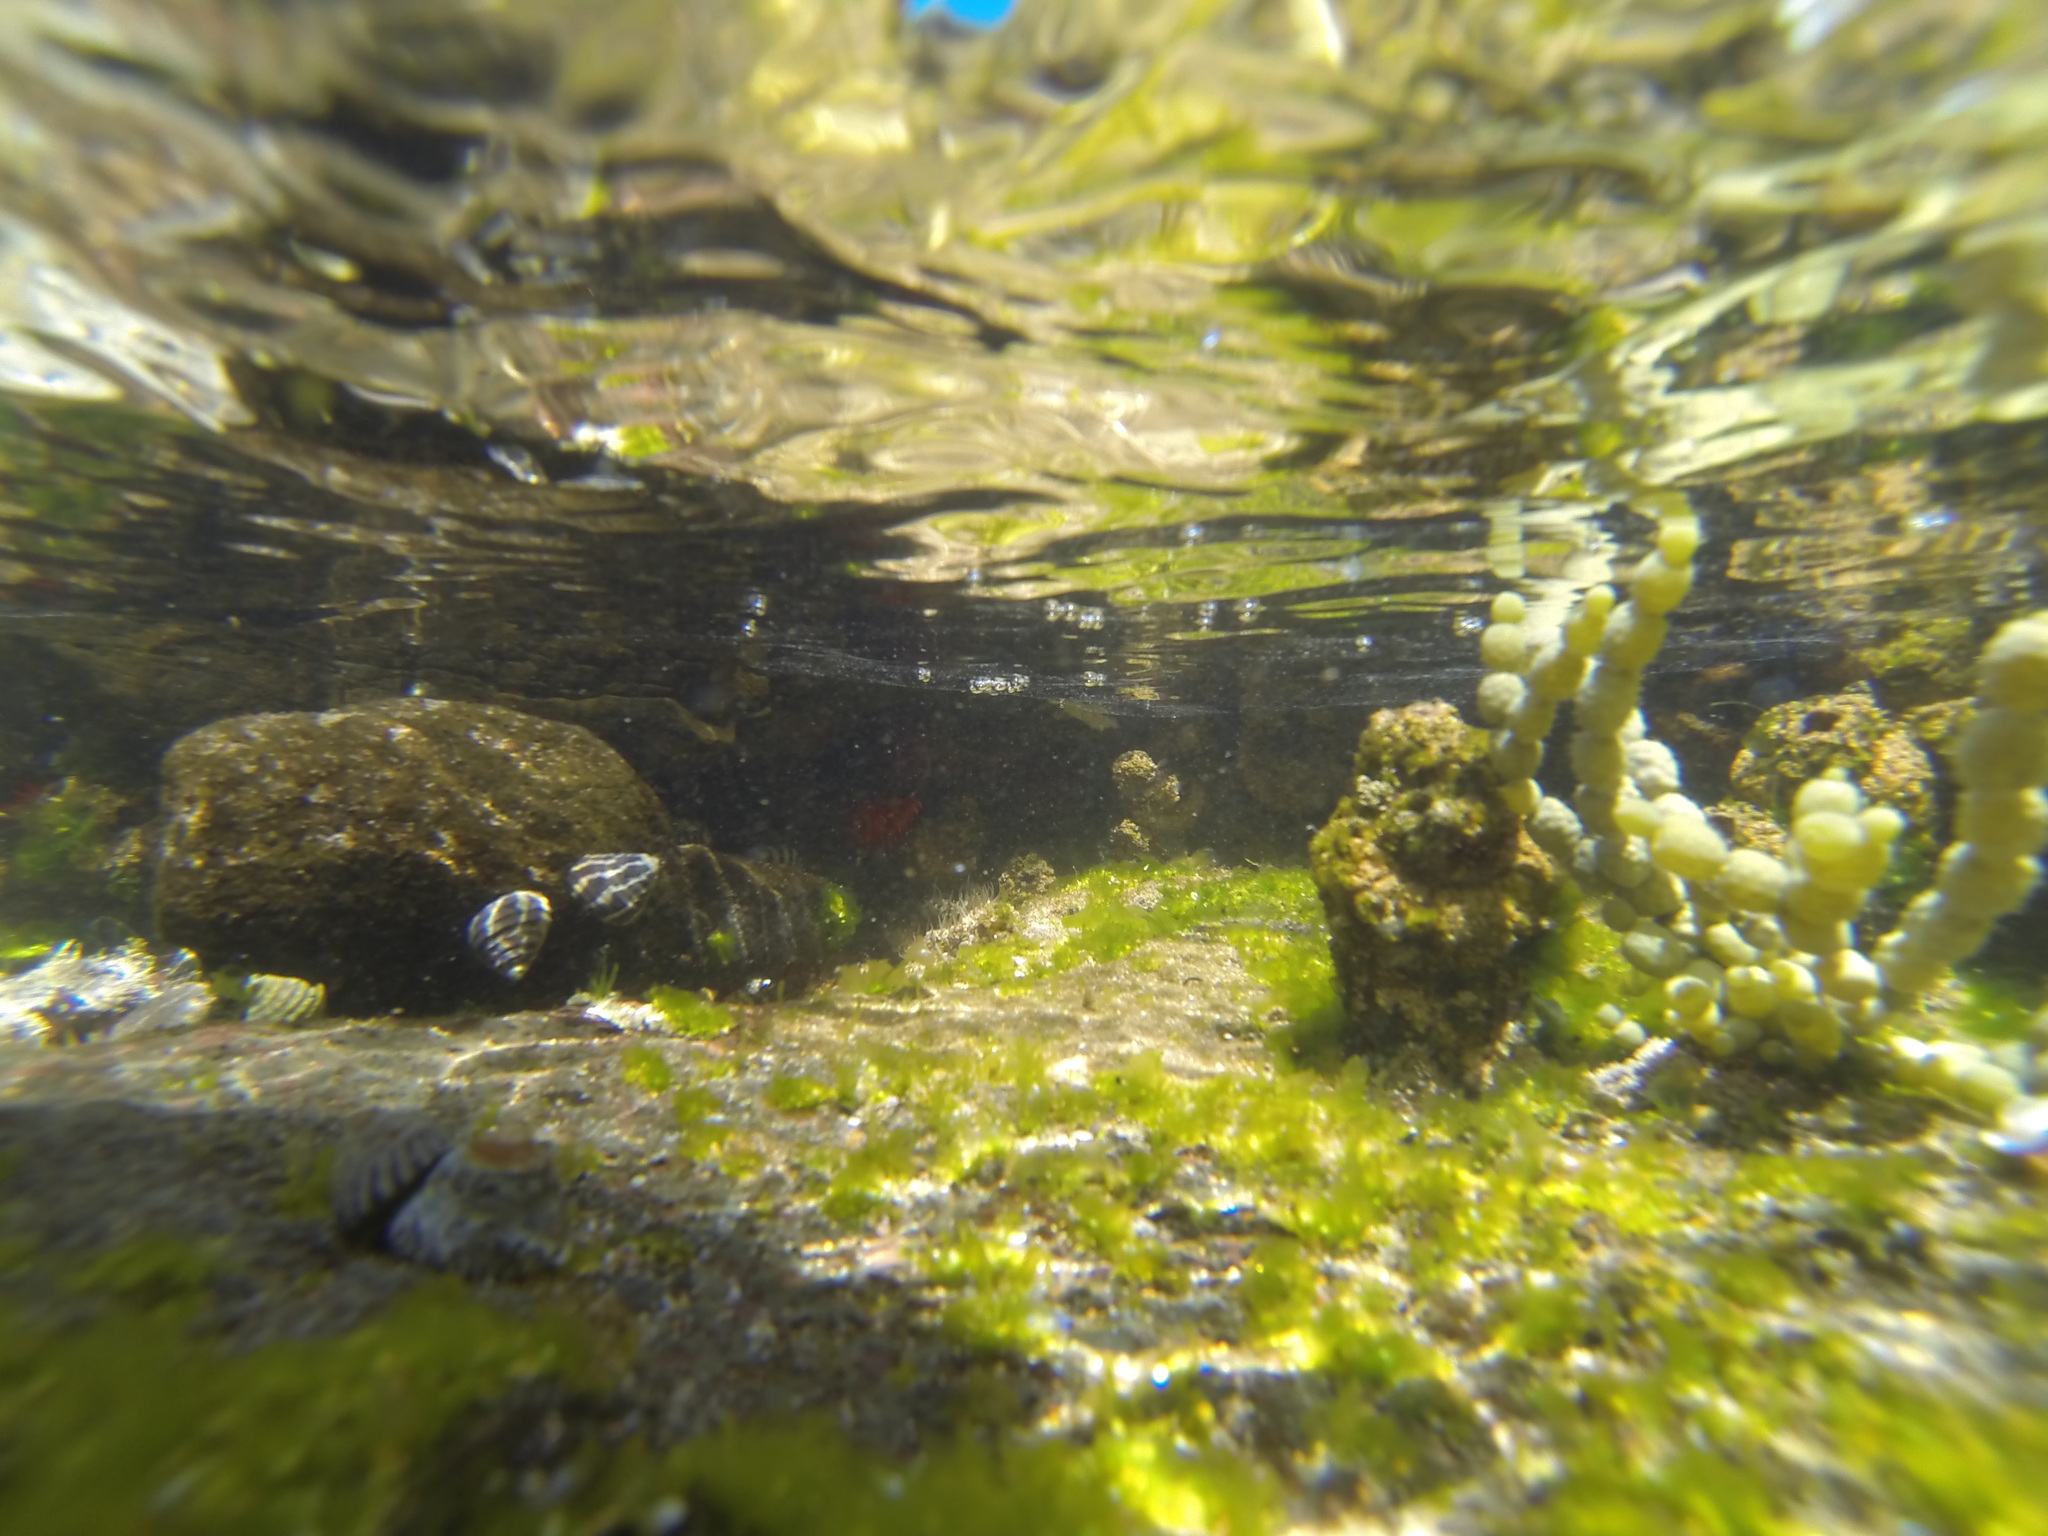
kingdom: Chromista
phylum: Ochrophyta
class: Phaeophyceae
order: Fucales
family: Hormosiraceae
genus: Hormosira
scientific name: Hormosira banksii
